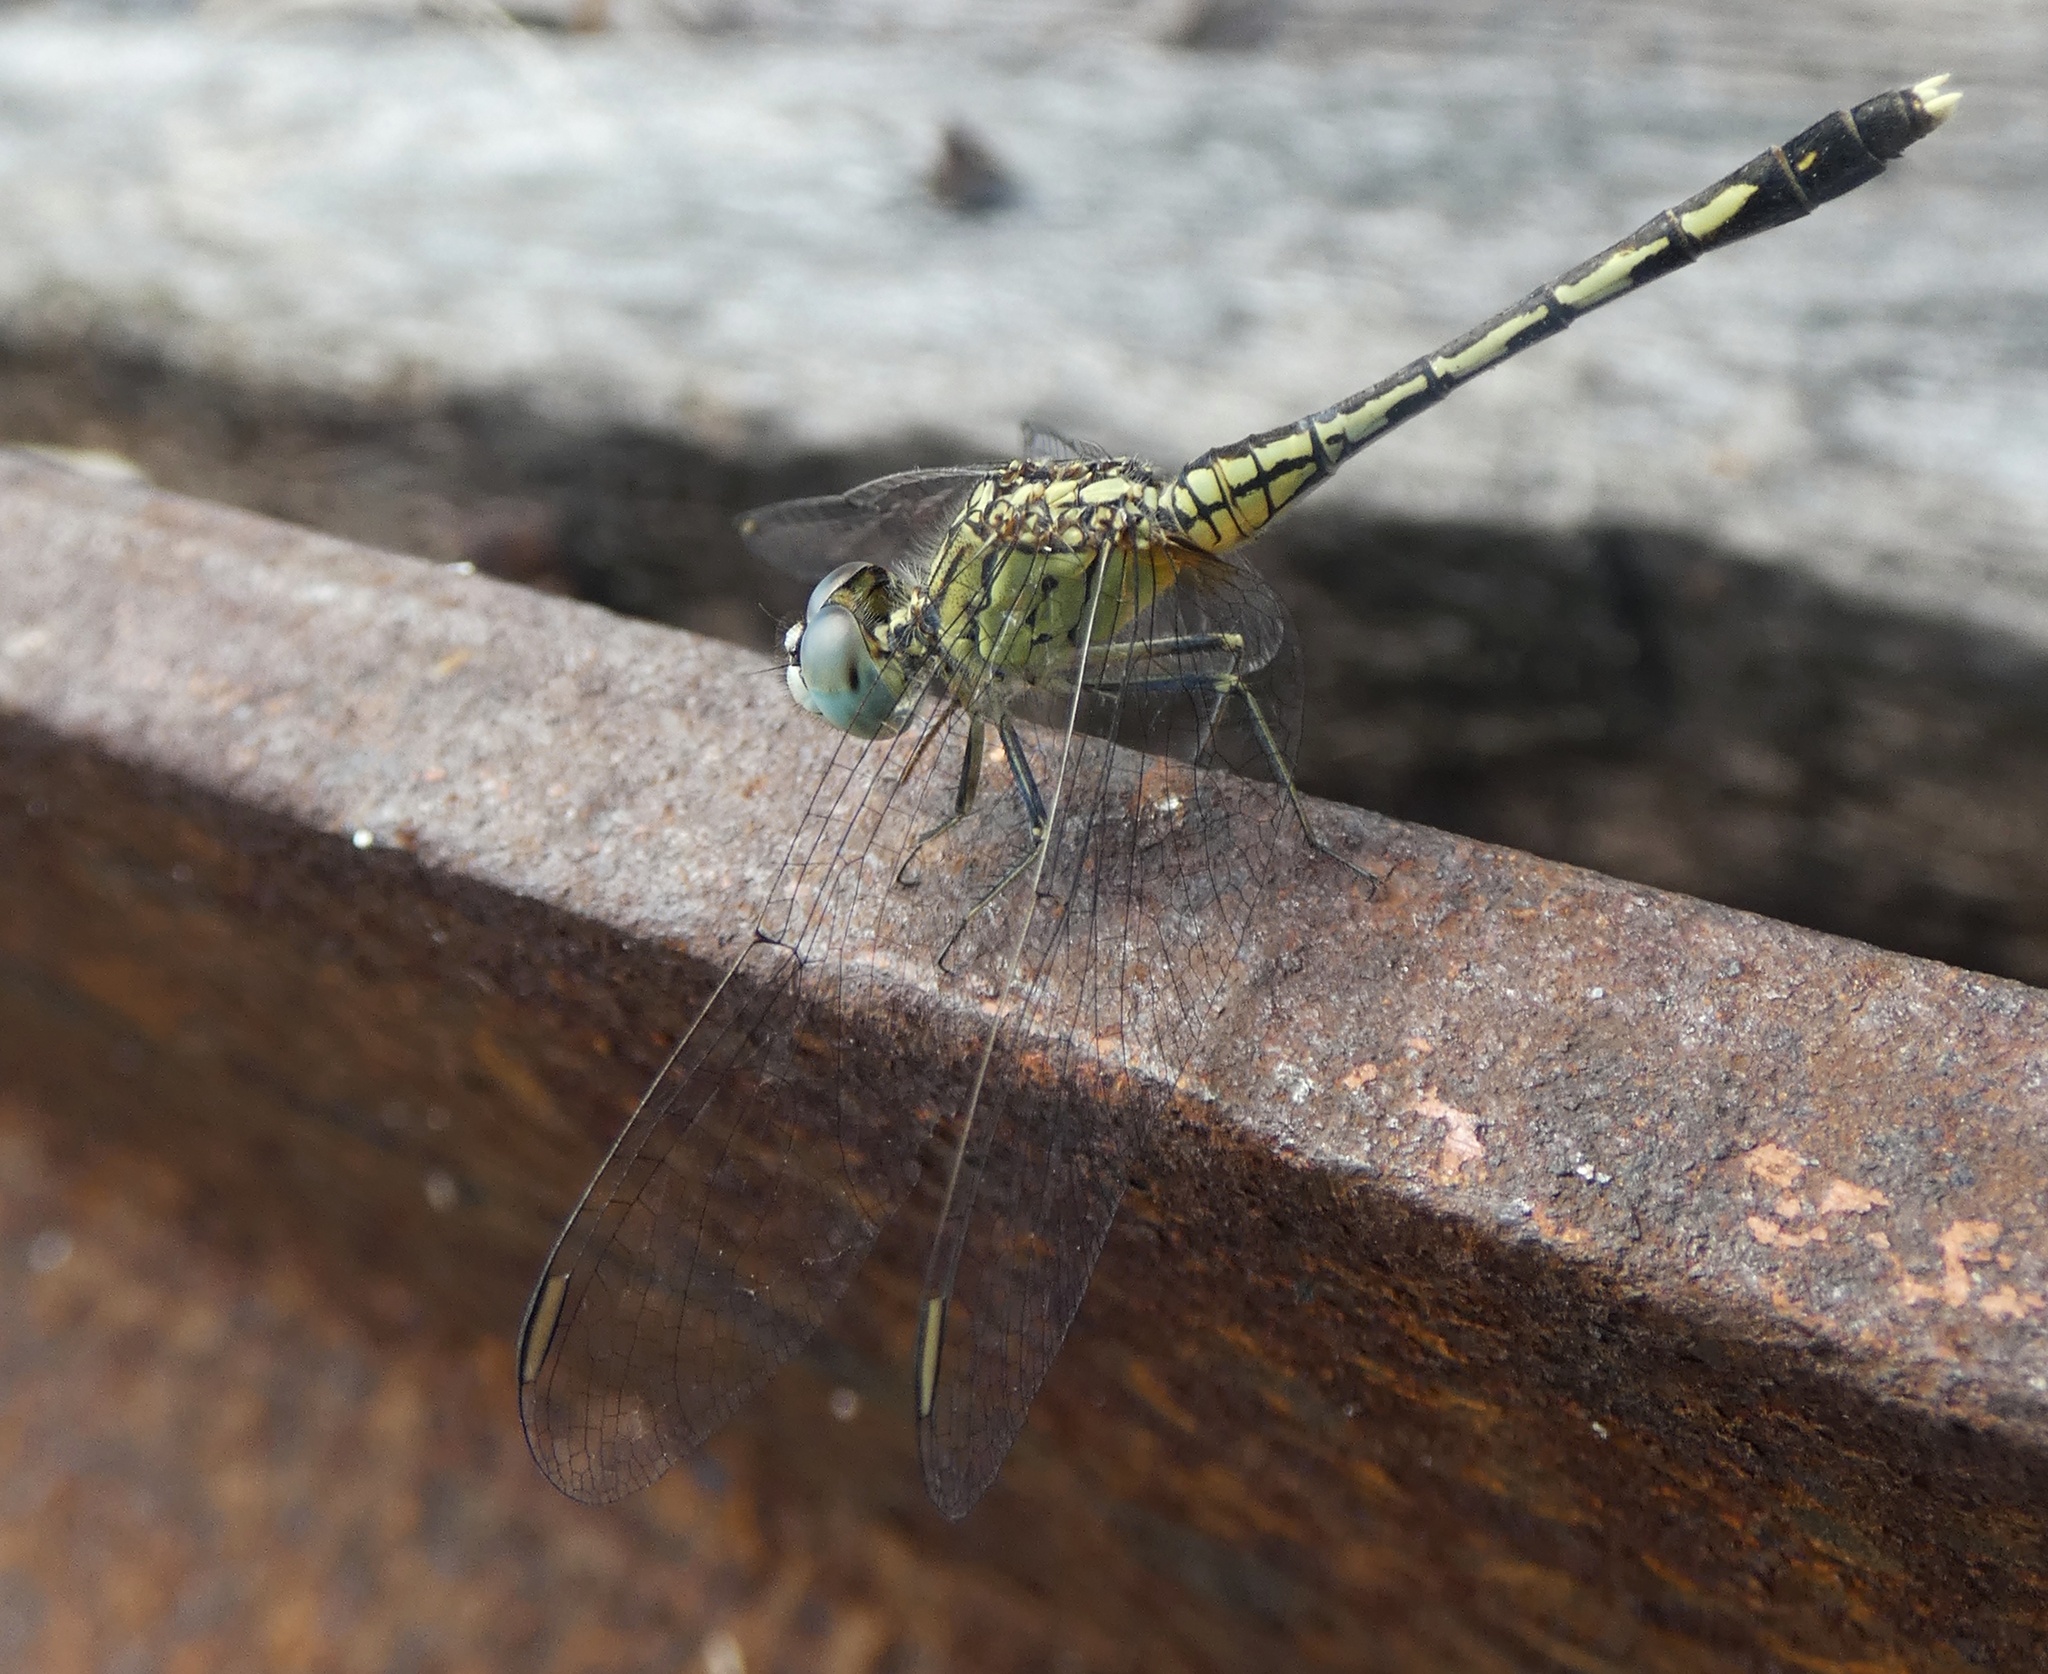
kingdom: Animalia
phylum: Arthropoda
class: Insecta
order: Odonata
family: Libellulidae
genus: Diplacodes
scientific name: Diplacodes trivialis
